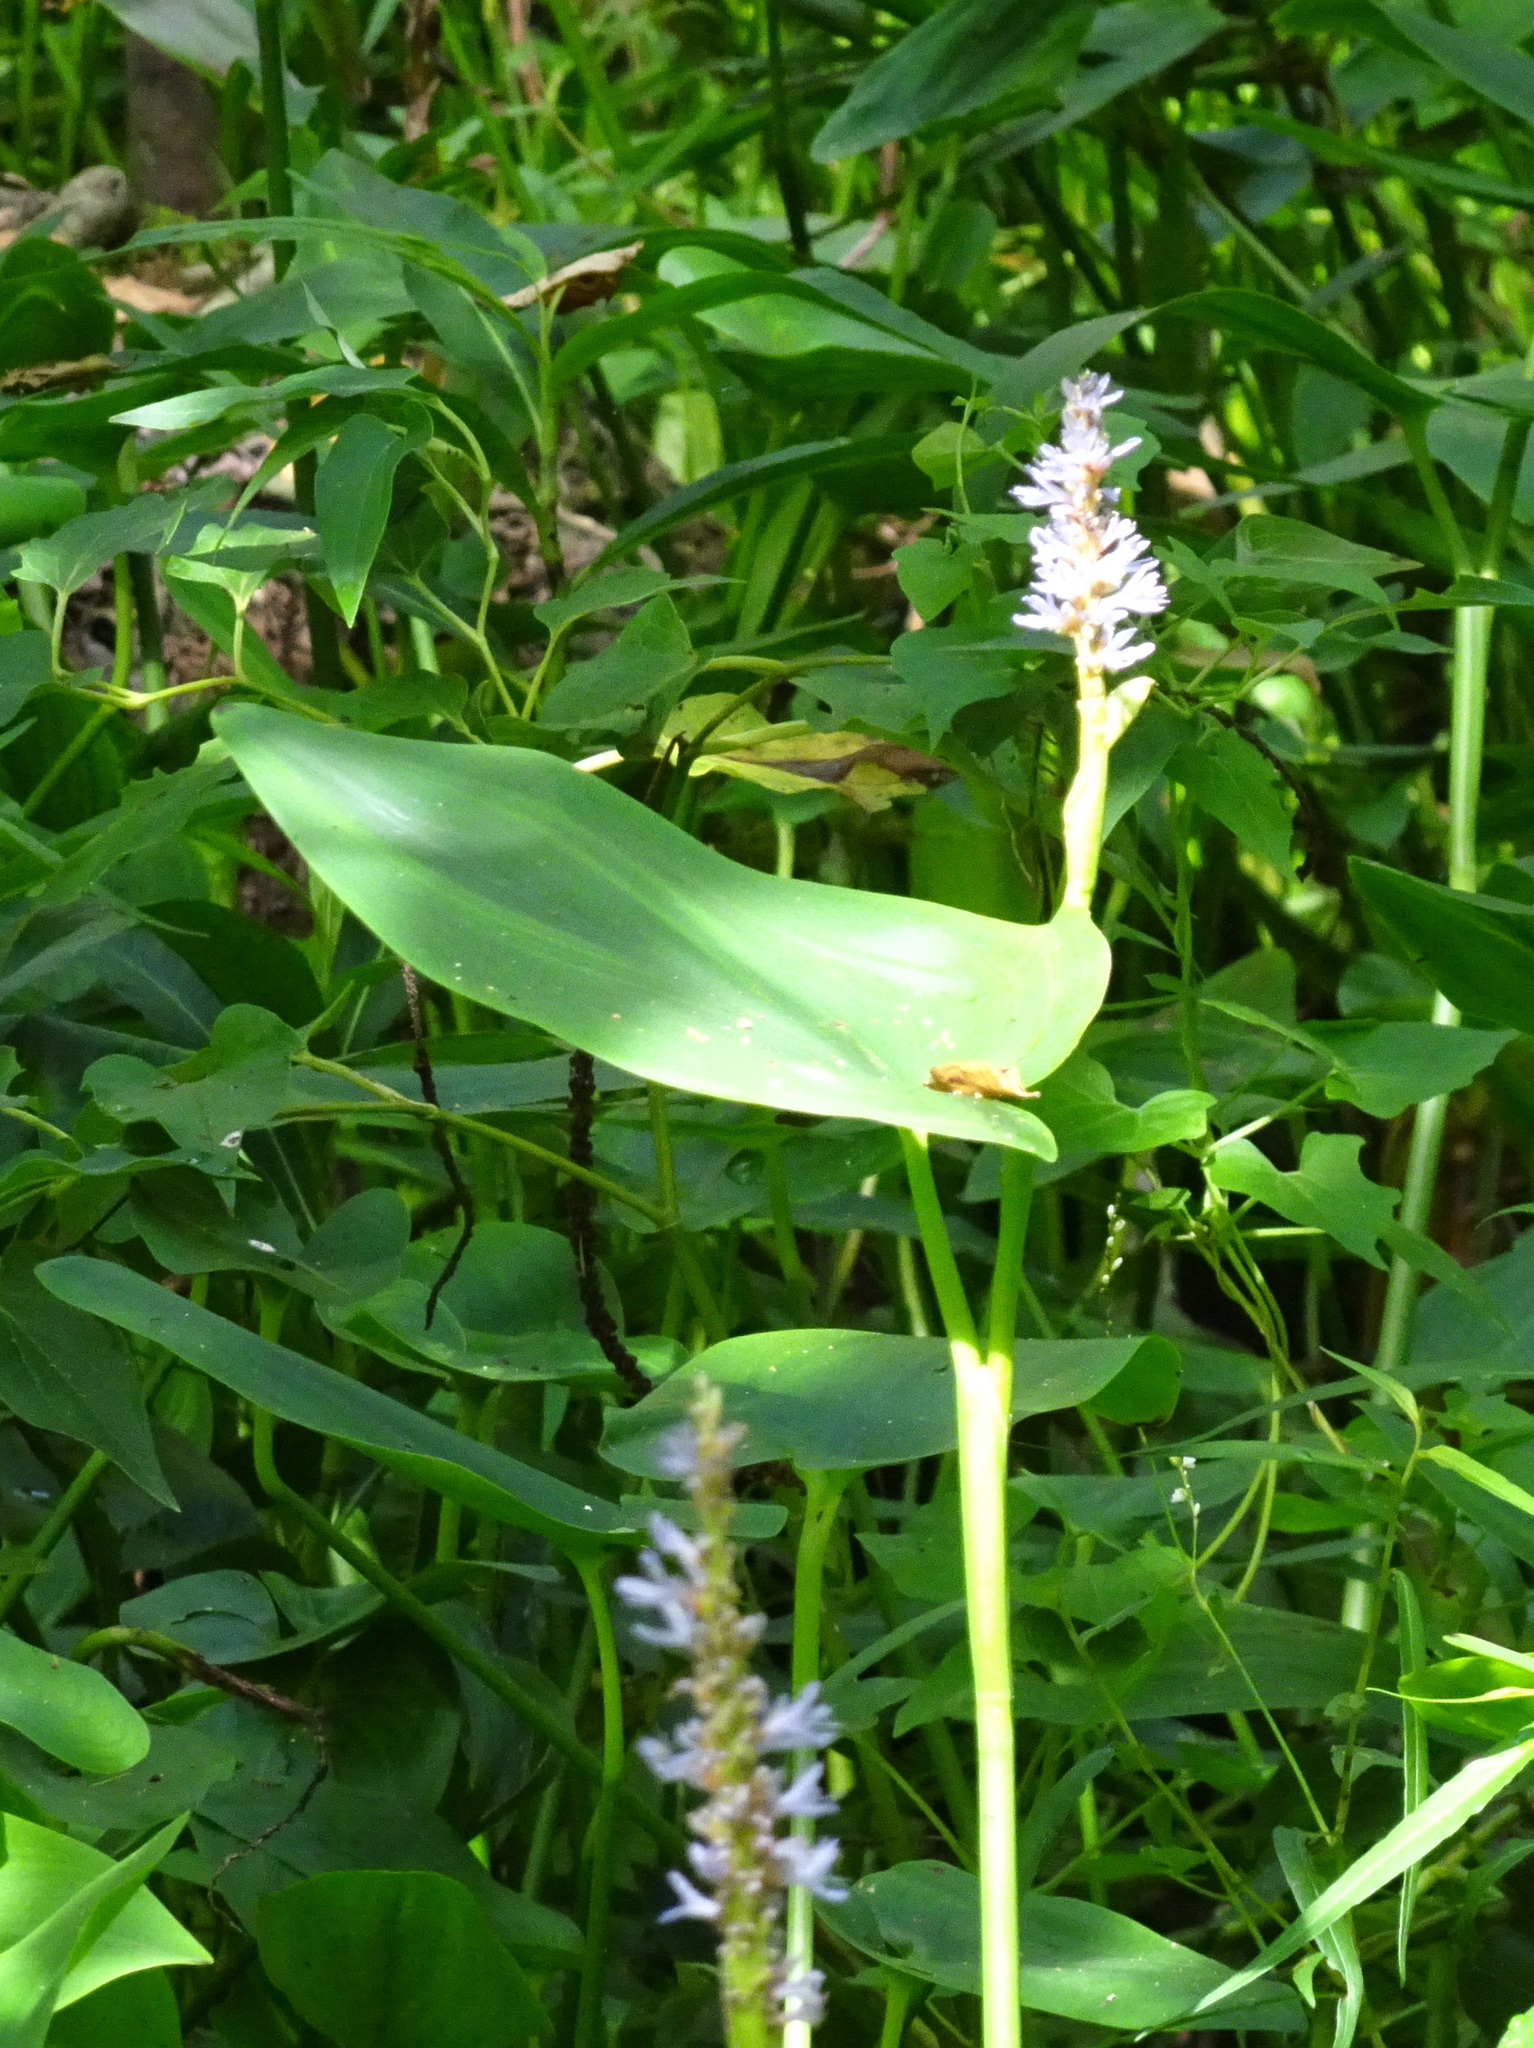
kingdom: Plantae
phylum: Tracheophyta
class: Liliopsida
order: Commelinales
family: Pontederiaceae
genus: Pontederia
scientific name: Pontederia cordata
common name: Pickerelweed
